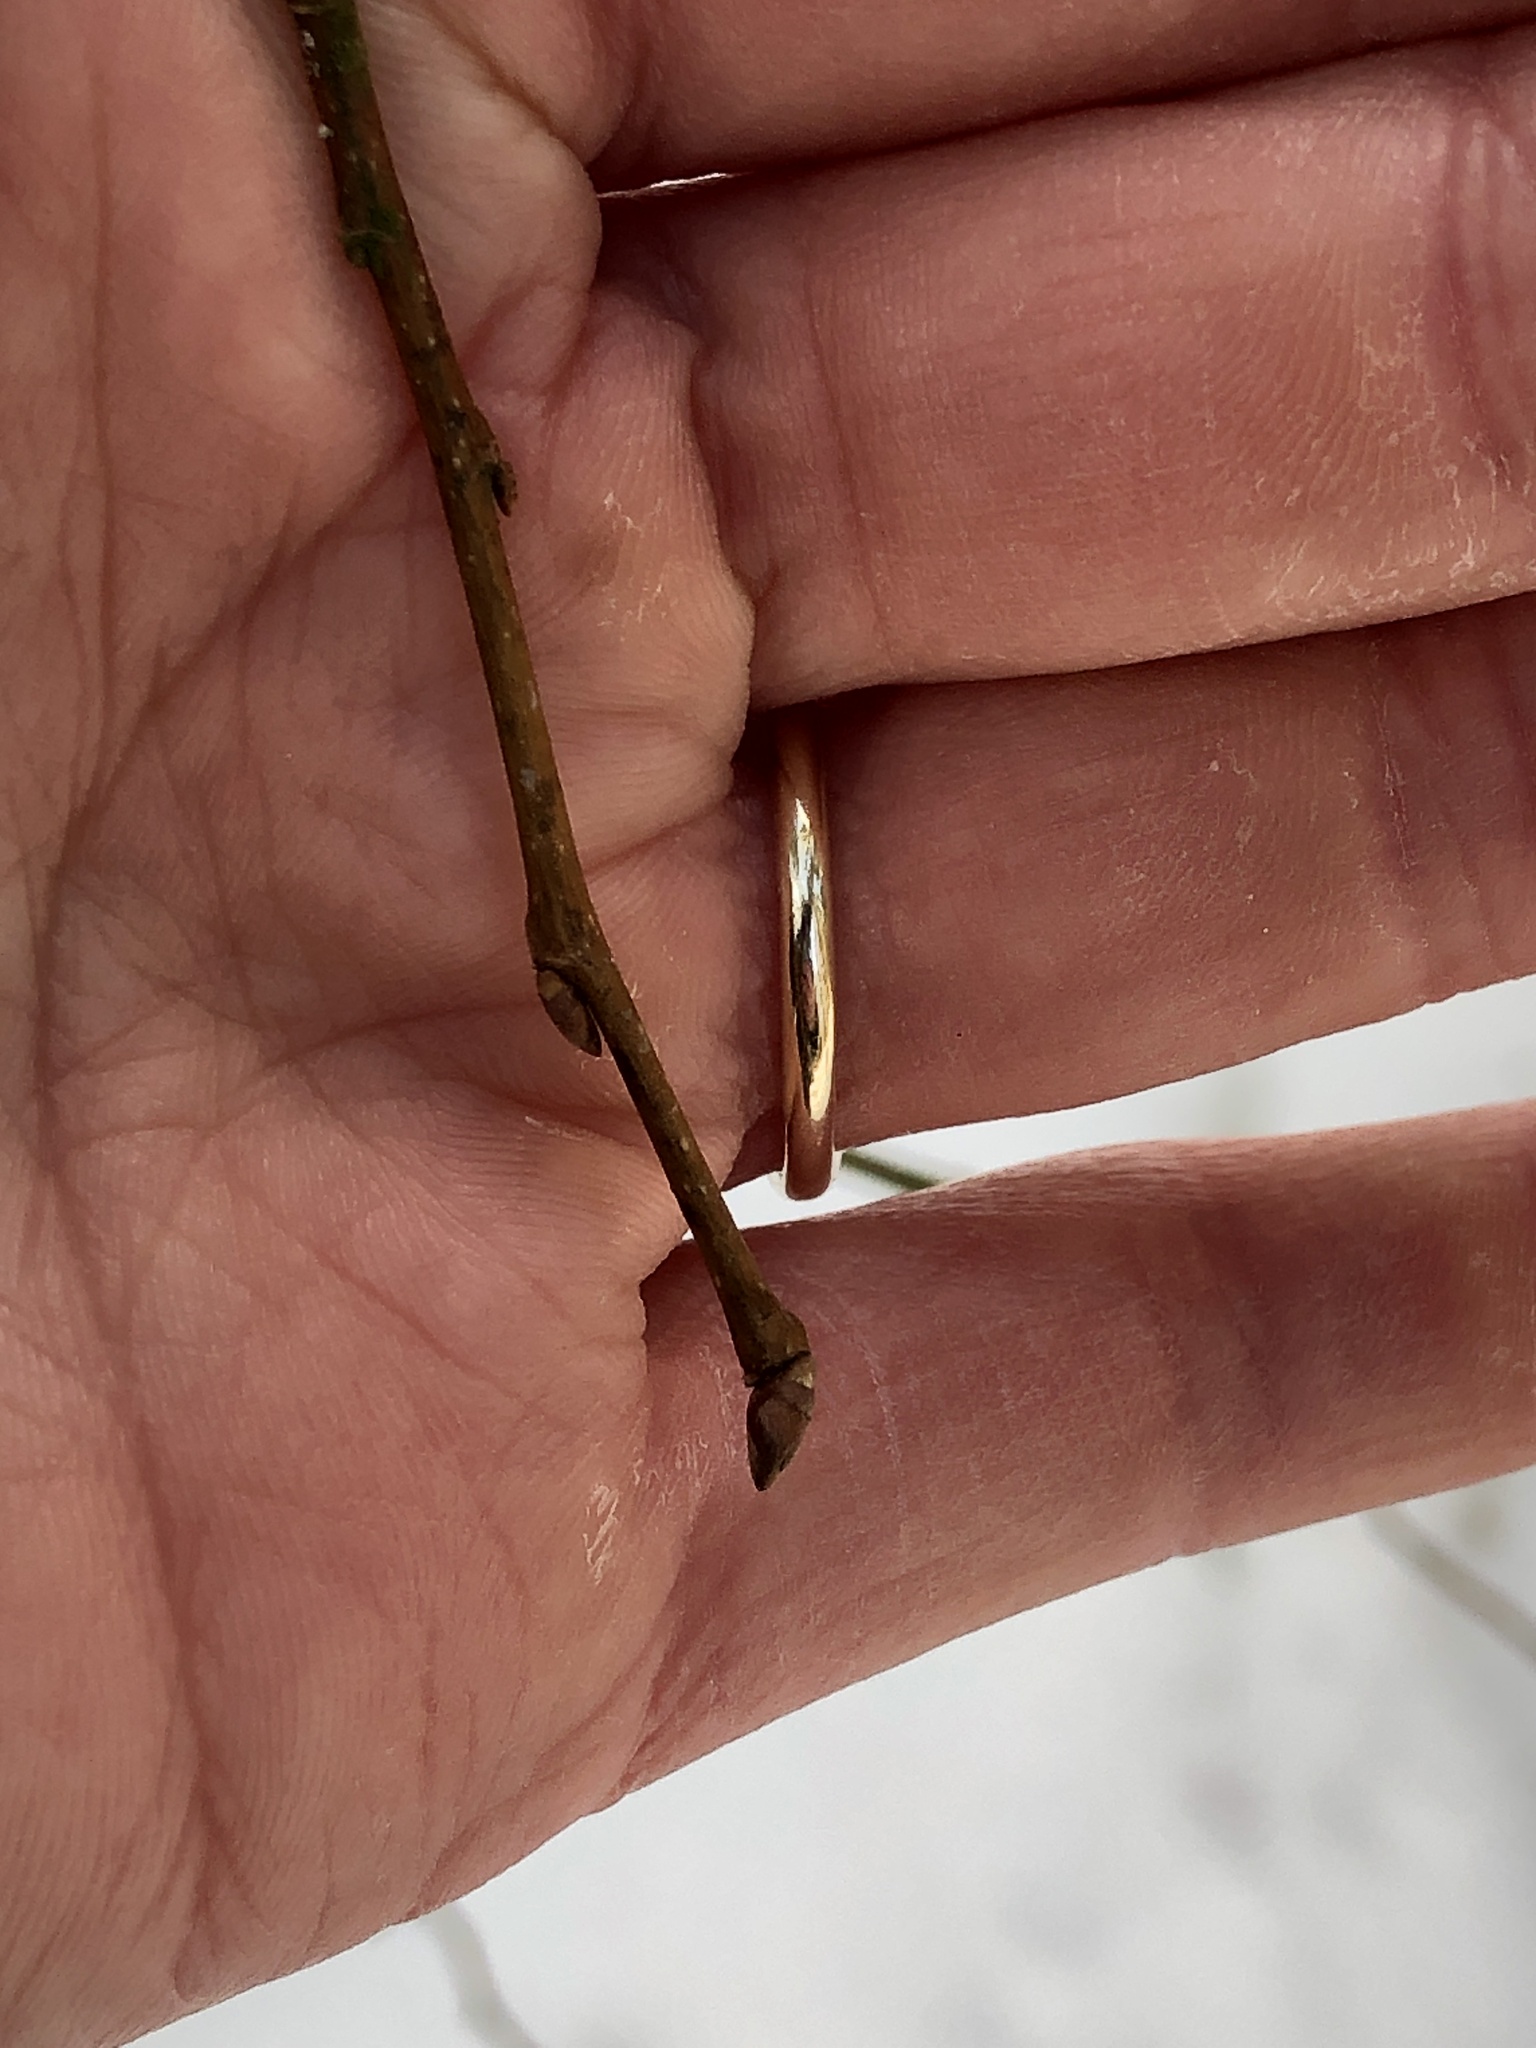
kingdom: Plantae
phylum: Tracheophyta
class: Magnoliopsida
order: Rosales
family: Ulmaceae
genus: Ulmus
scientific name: Ulmus americana
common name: American elm
